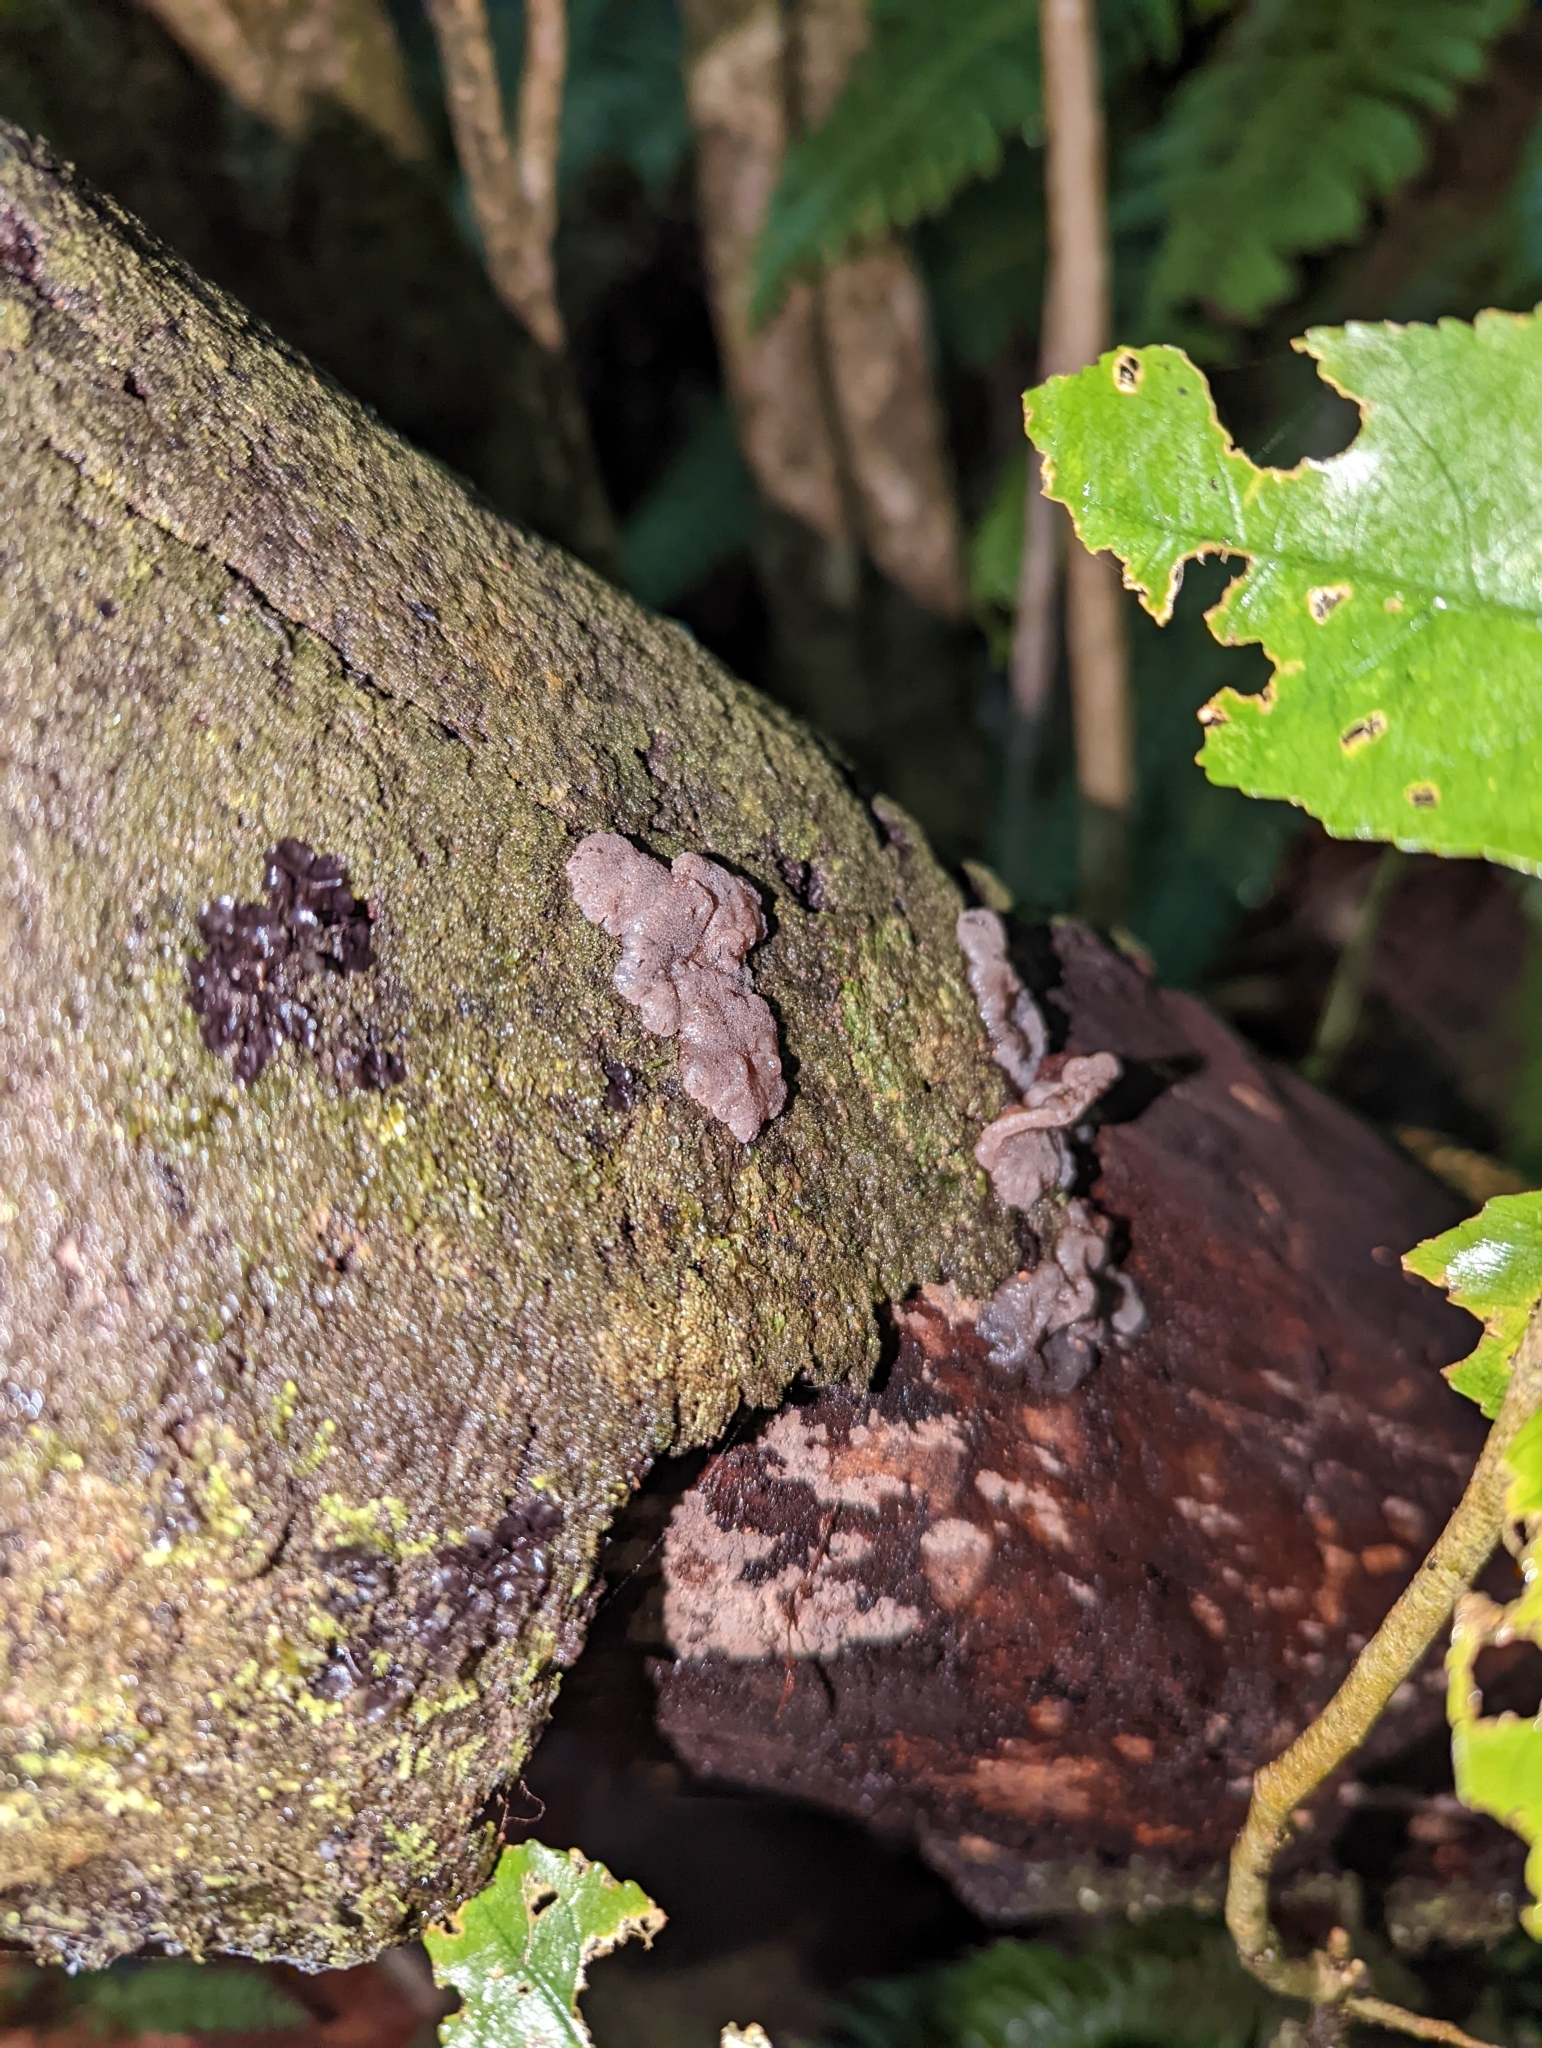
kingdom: Fungi
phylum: Basidiomycota
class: Agaricomycetes
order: Auriculariales
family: Auriculariaceae
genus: Tremellochaete
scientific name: Tremellochaete
